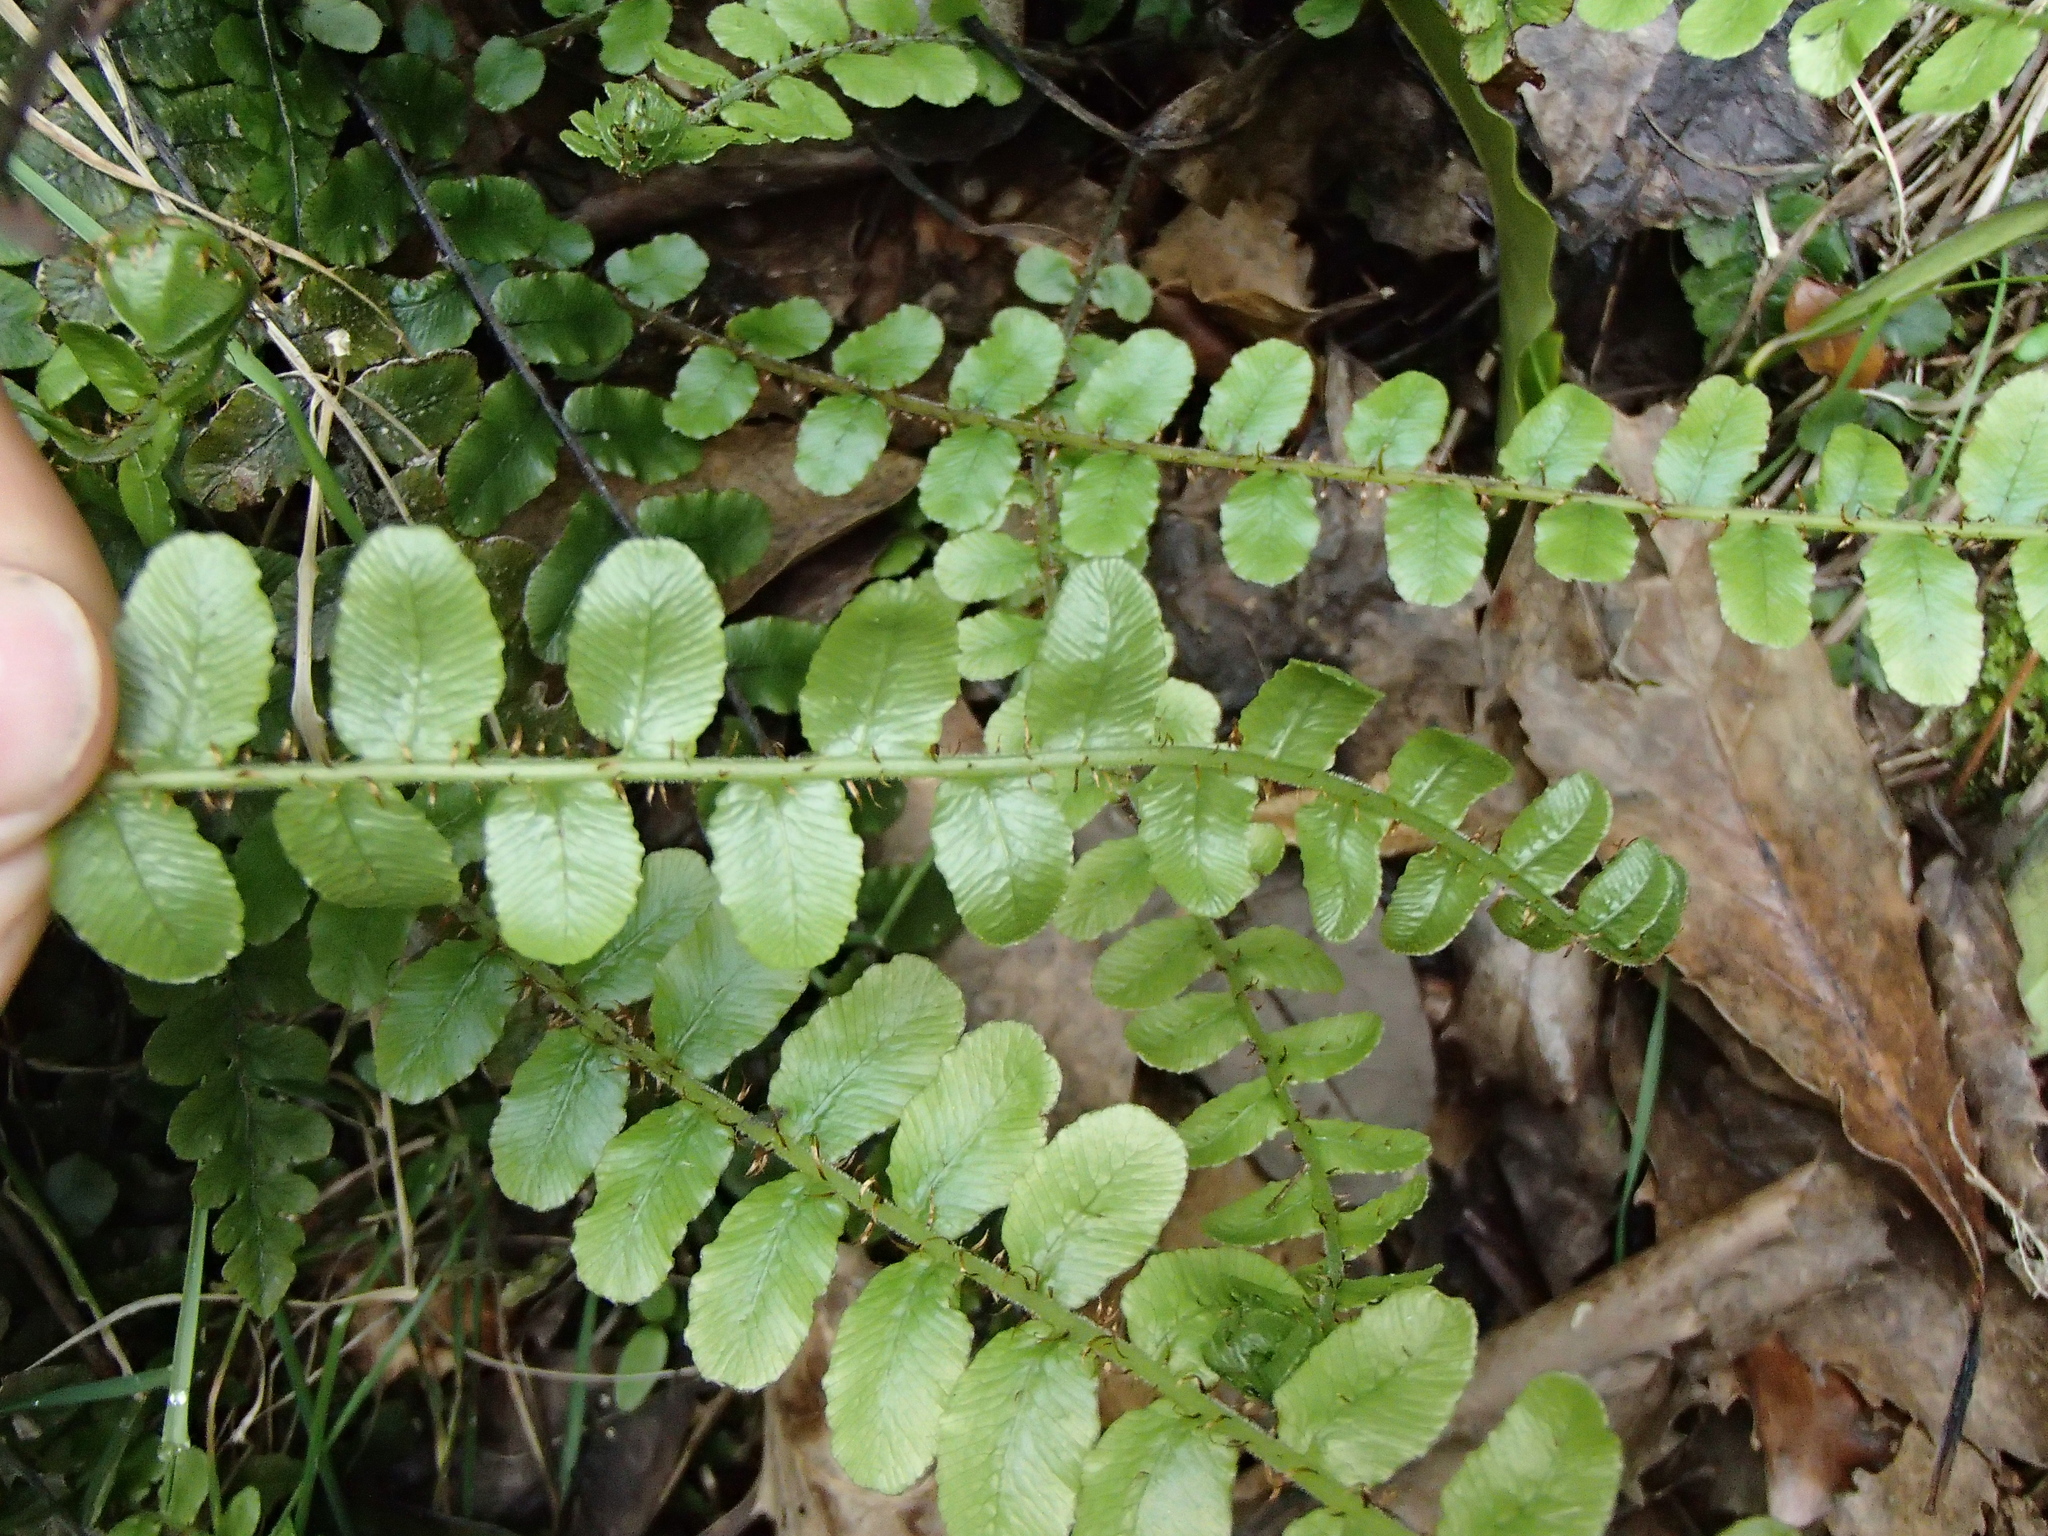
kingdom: Plantae
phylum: Tracheophyta
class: Polypodiopsida
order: Polypodiales
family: Blechnaceae
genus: Cranfillia
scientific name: Cranfillia fluviatilis
